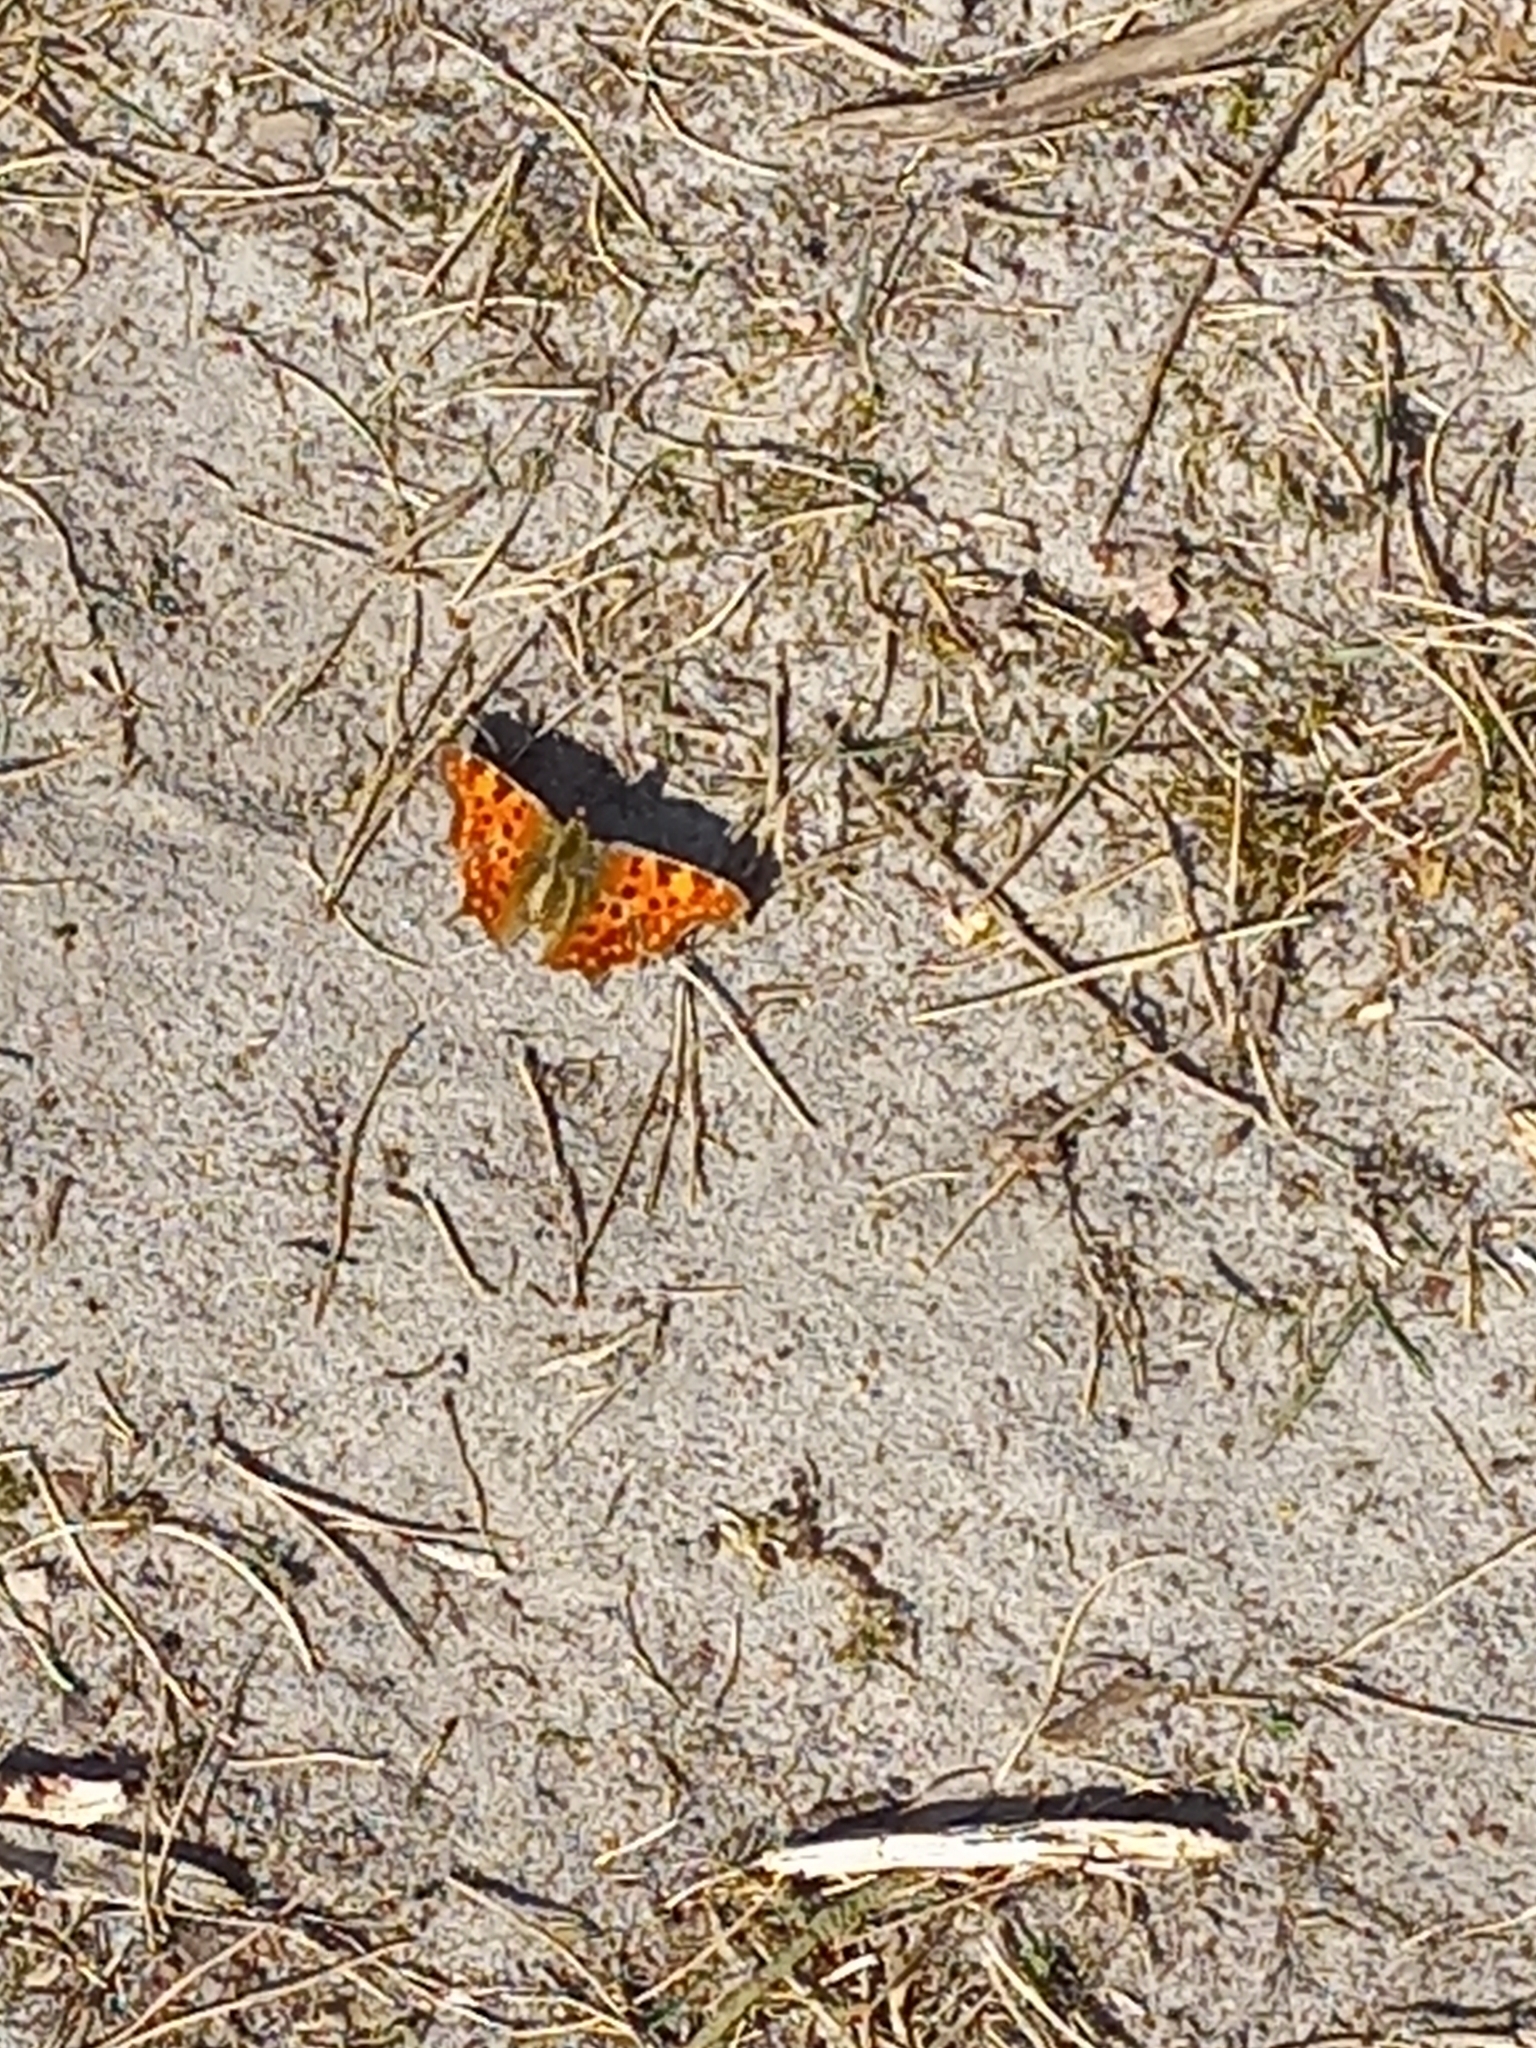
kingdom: Animalia
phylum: Arthropoda
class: Insecta
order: Lepidoptera
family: Nymphalidae
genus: Polygonia
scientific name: Polygonia c-album
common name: Comma
